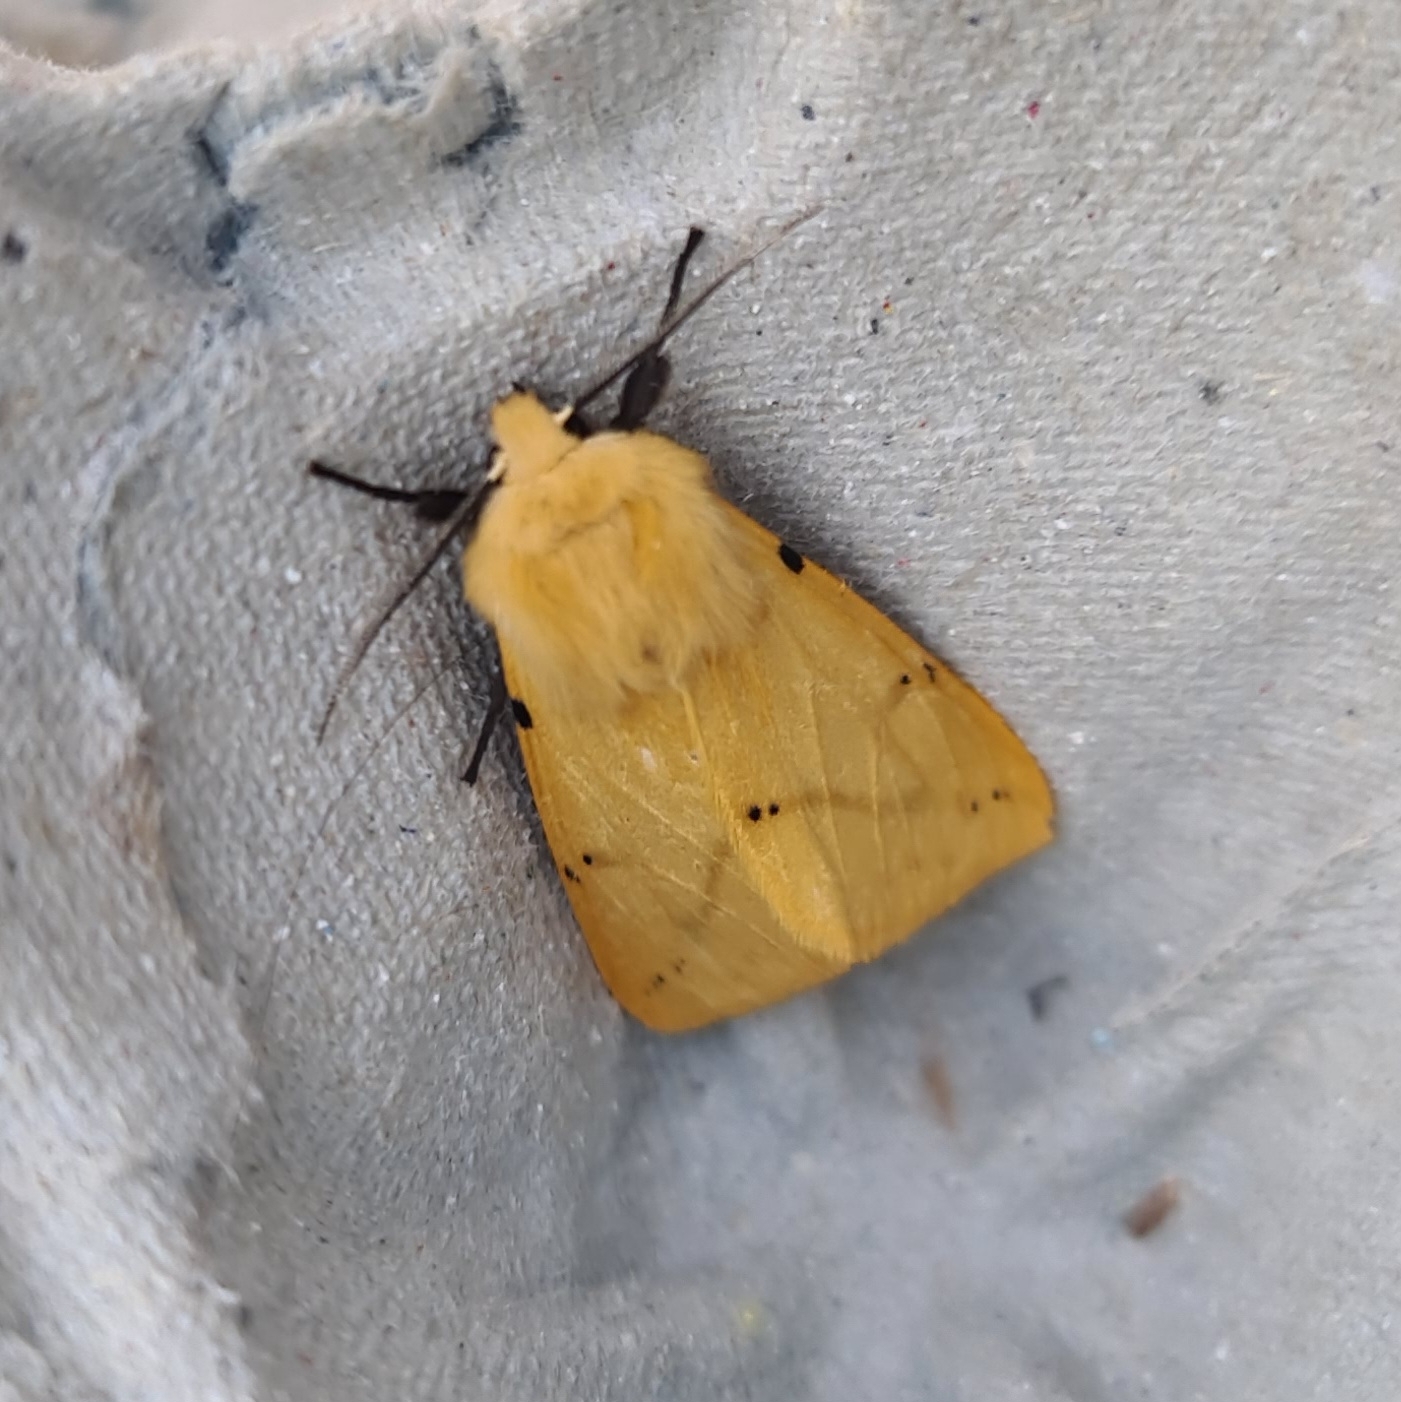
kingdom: Animalia
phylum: Arthropoda
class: Insecta
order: Lepidoptera
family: Erebidae
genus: Spilarctia
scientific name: Spilarctia lutea
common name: Buff ermine
